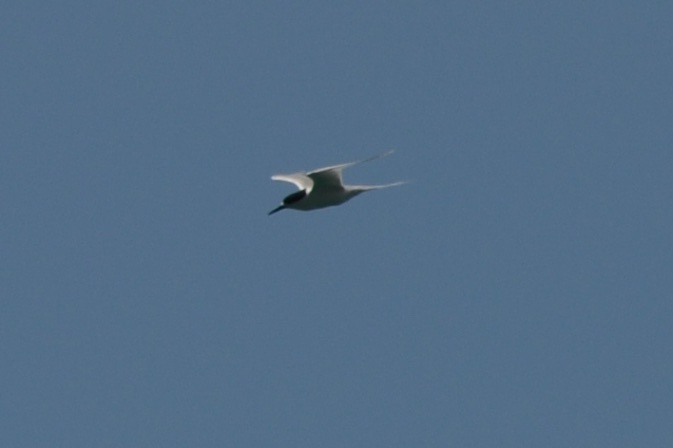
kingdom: Animalia
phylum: Chordata
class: Aves
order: Charadriiformes
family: Laridae
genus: Sterna
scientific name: Sterna striata
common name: White-fronted tern
